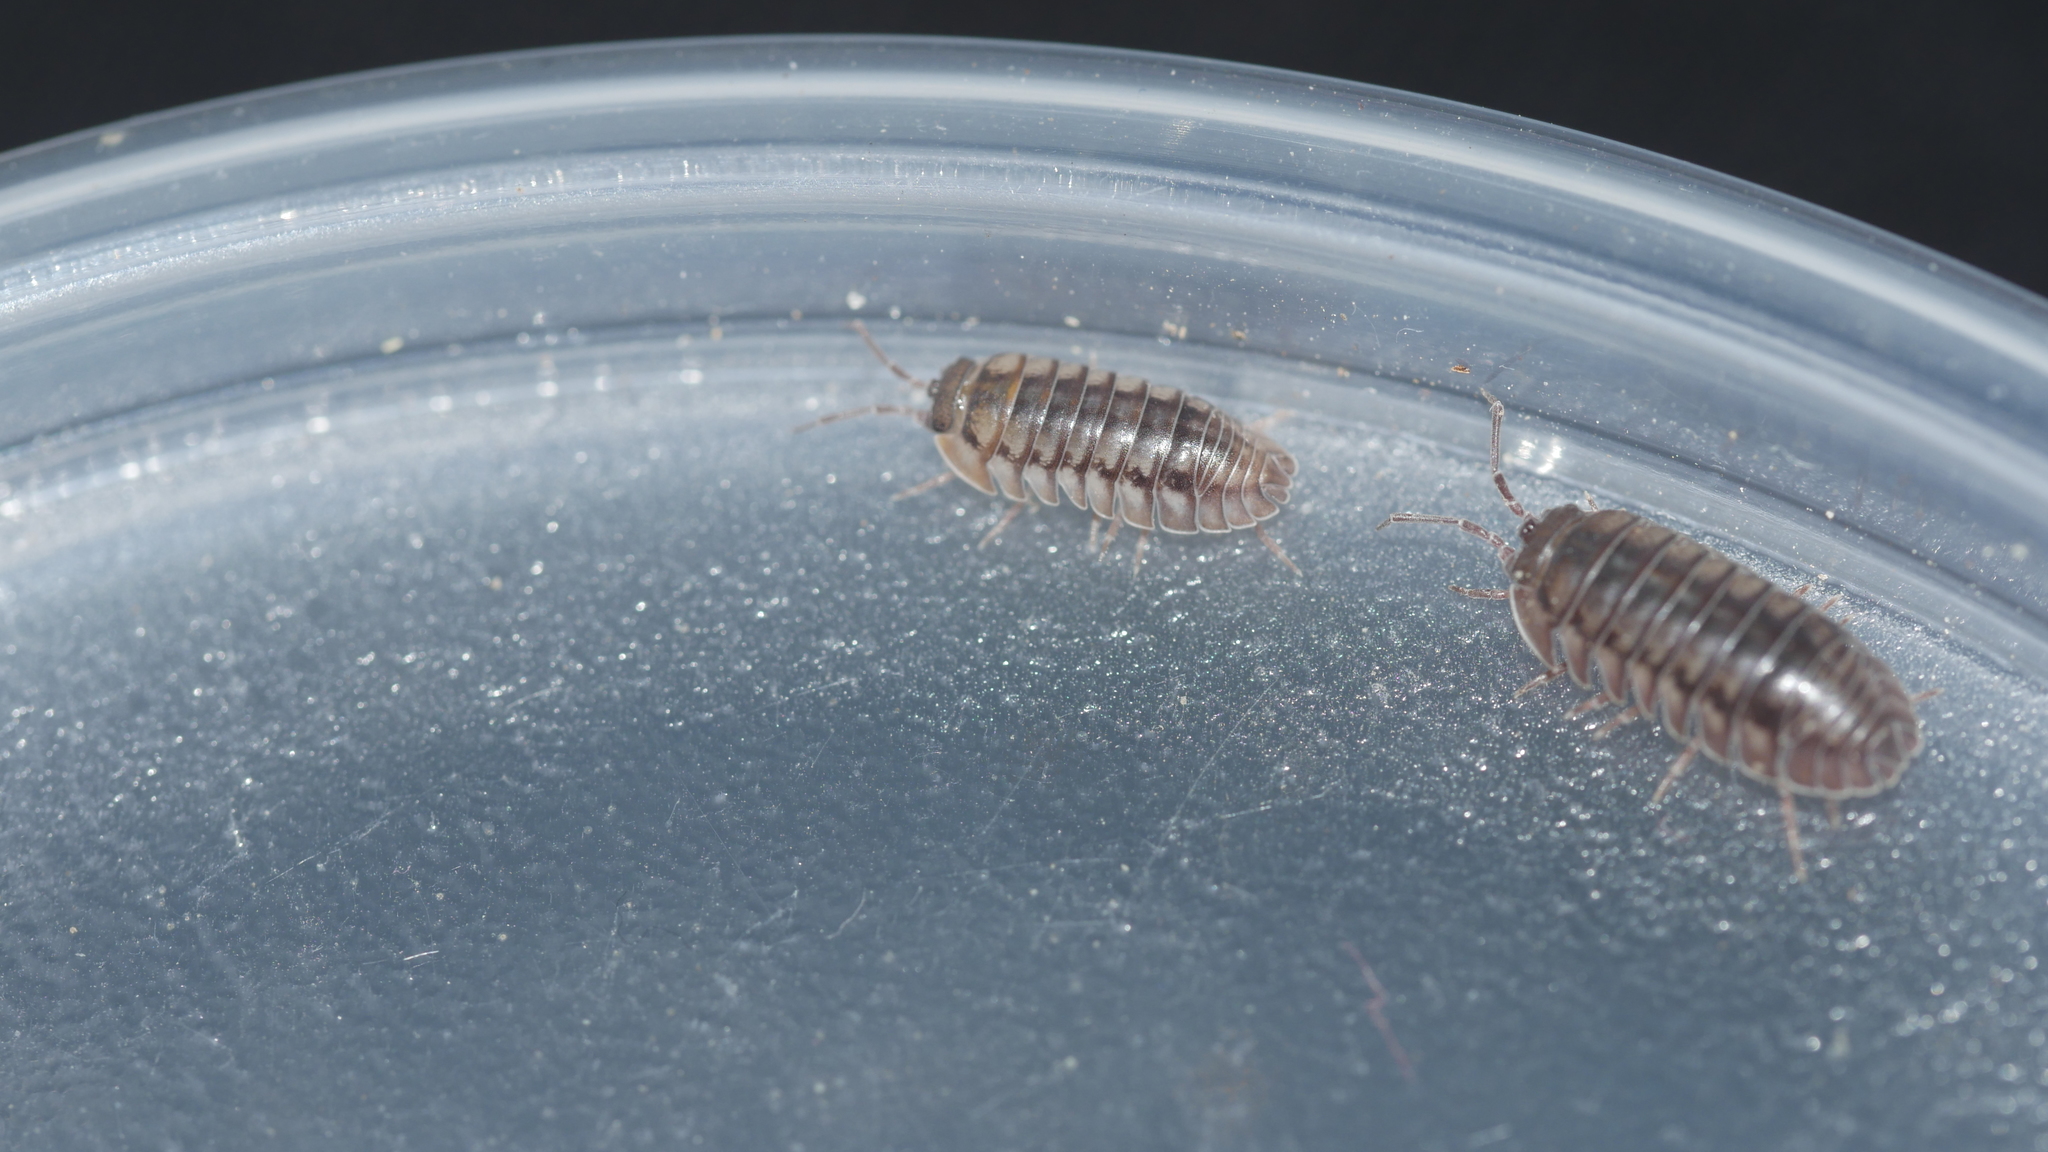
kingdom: Animalia
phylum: Arthropoda
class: Malacostraca
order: Isopoda
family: Armadillidiidae
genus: Armadillidium
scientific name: Armadillidium nasatum
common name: Isopod
